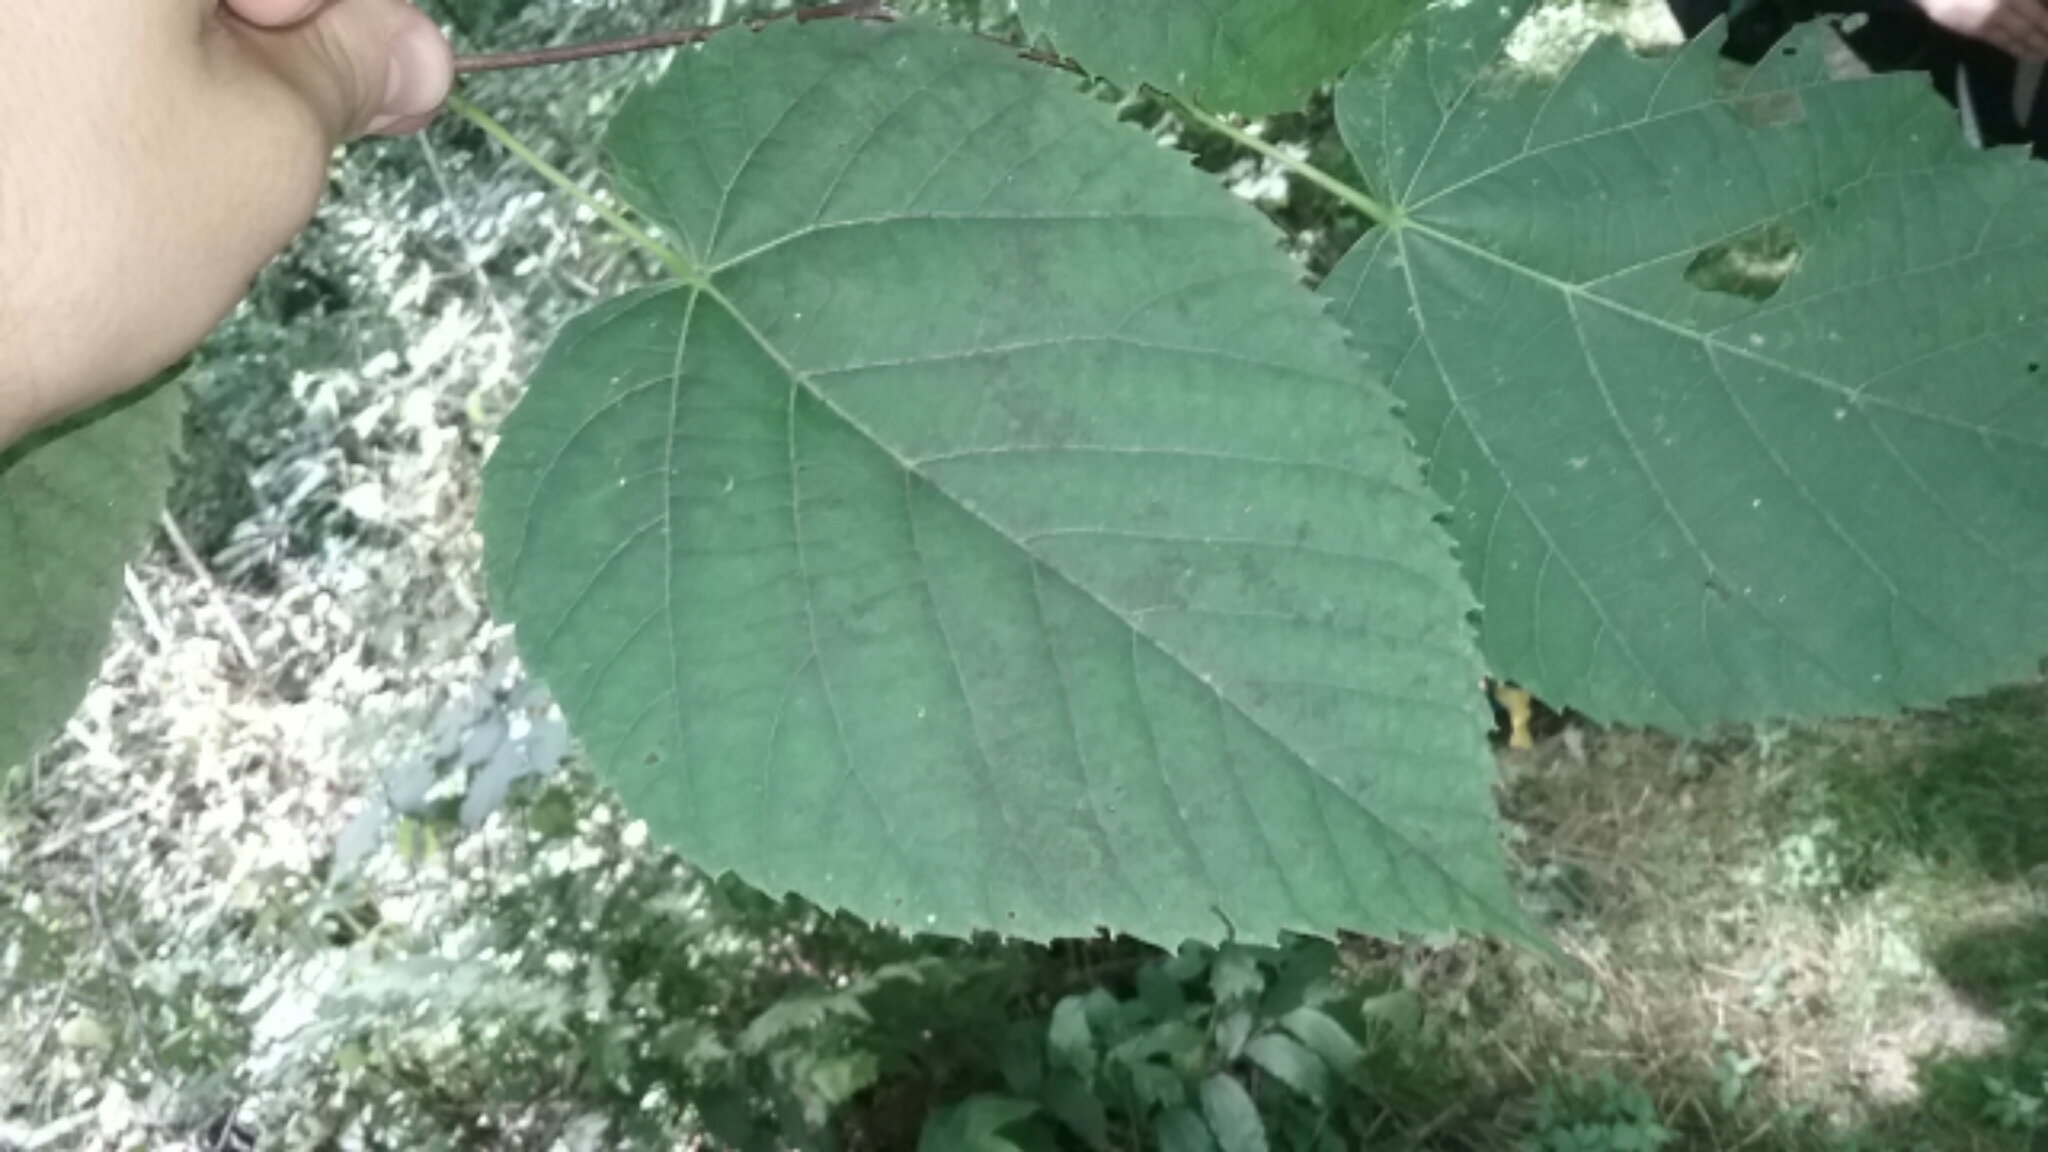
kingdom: Plantae
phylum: Tracheophyta
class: Magnoliopsida
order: Malvales
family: Malvaceae
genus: Tilia
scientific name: Tilia americana
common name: Basswood
